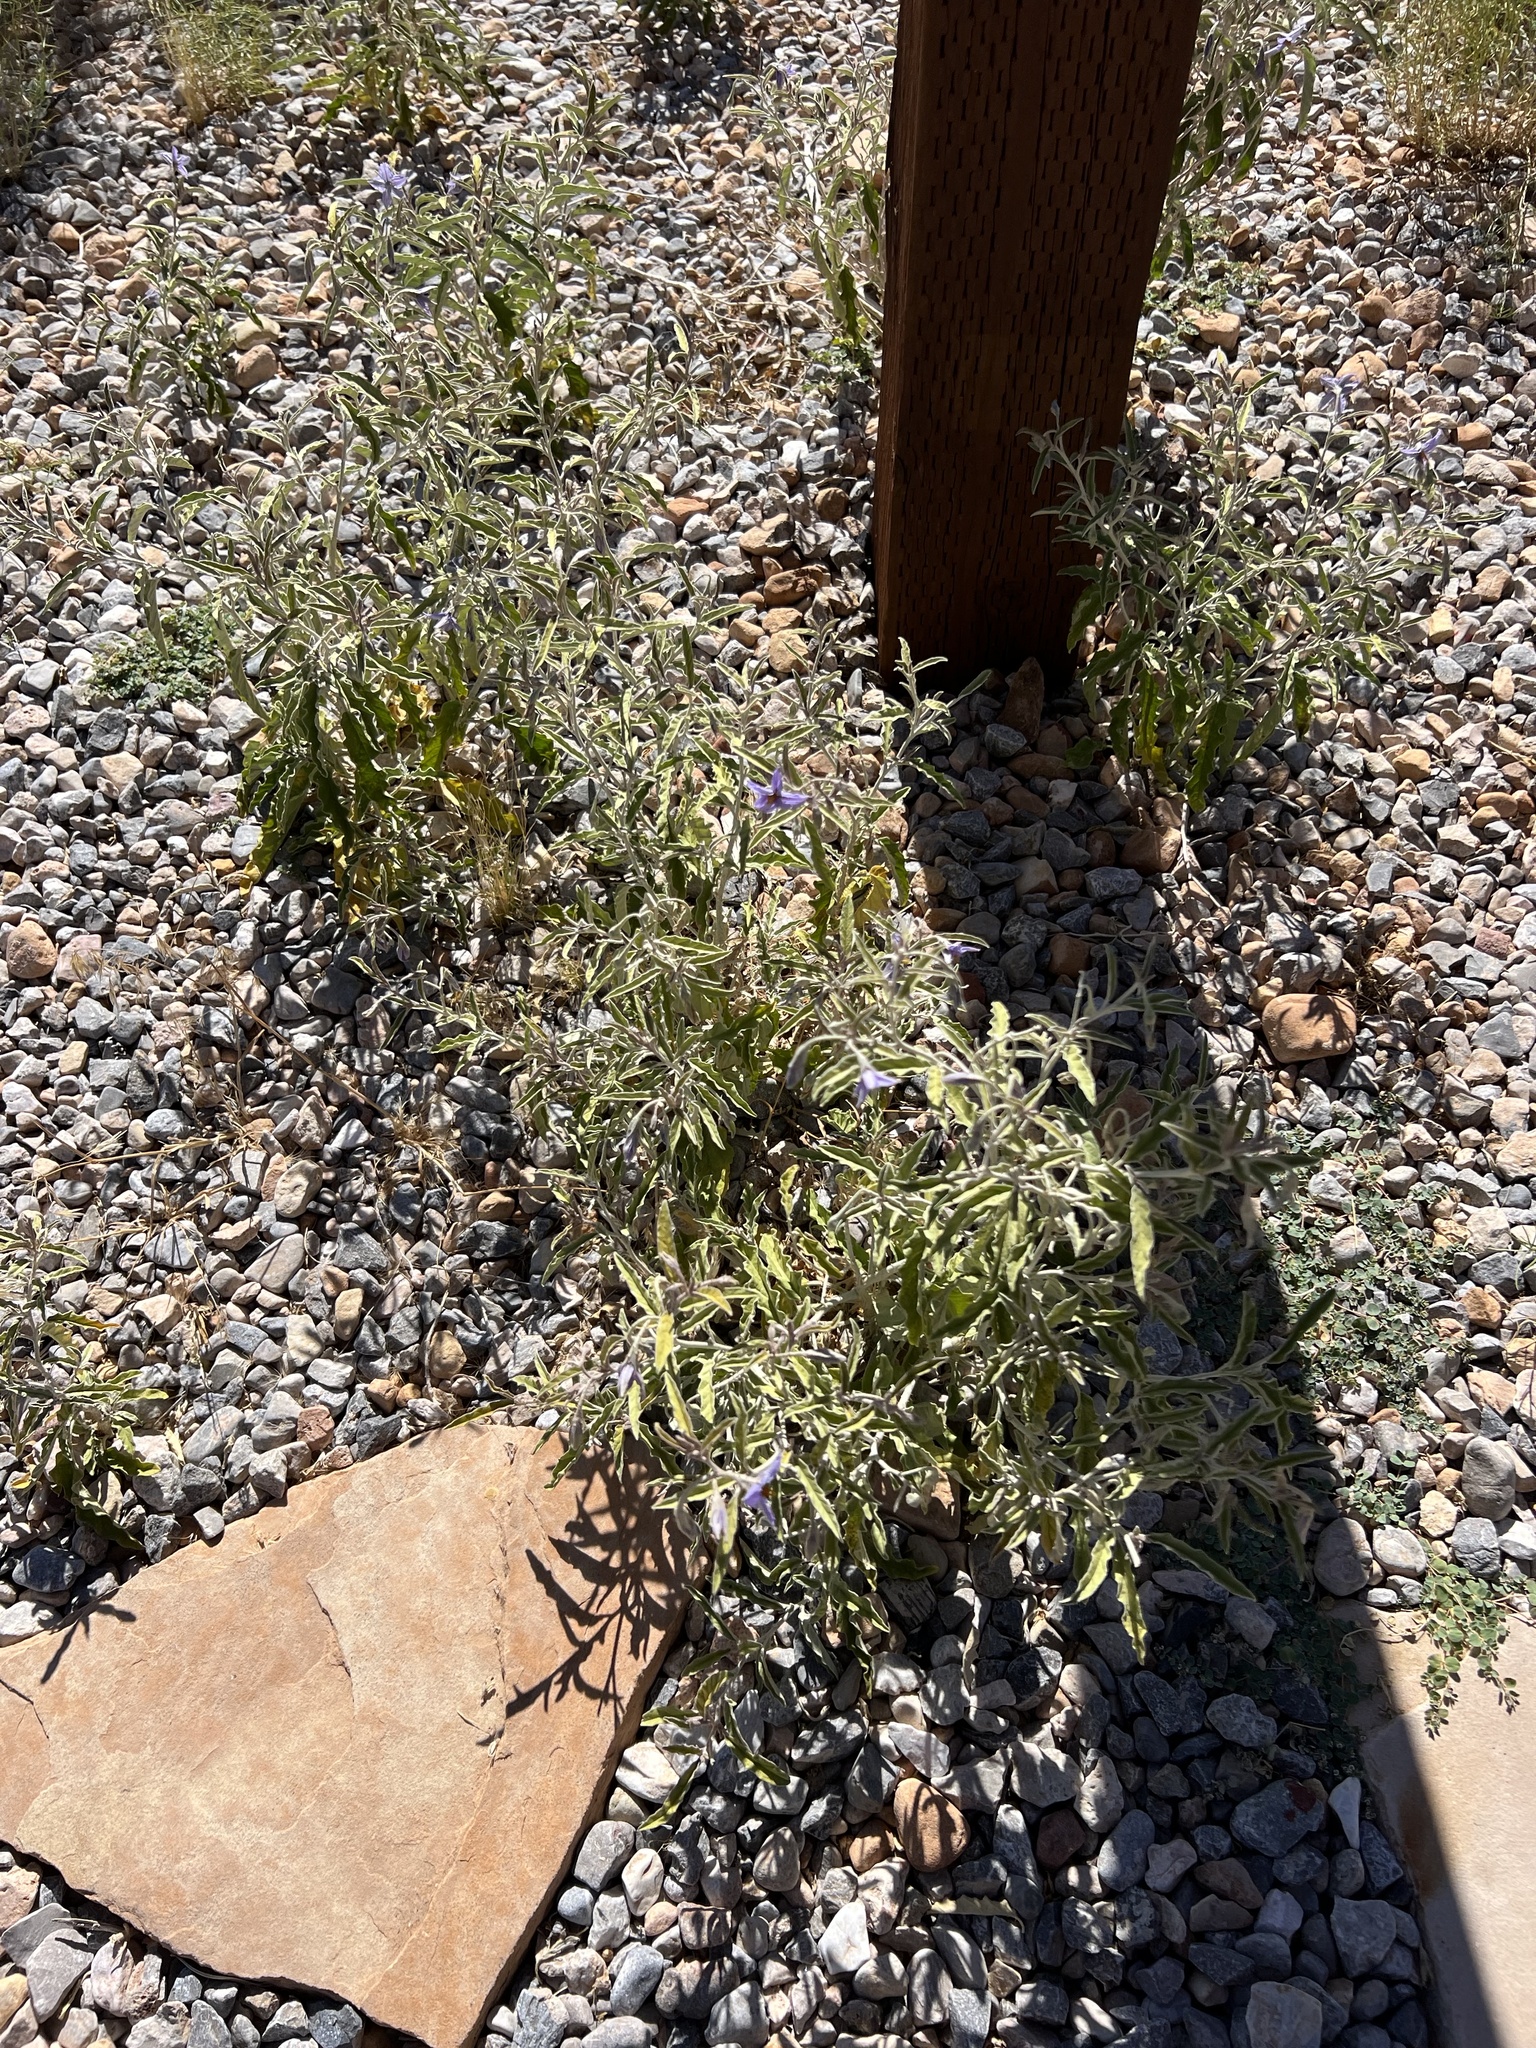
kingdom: Plantae
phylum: Tracheophyta
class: Magnoliopsida
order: Solanales
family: Solanaceae
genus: Solanum
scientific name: Solanum elaeagnifolium
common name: Silverleaf nightshade
